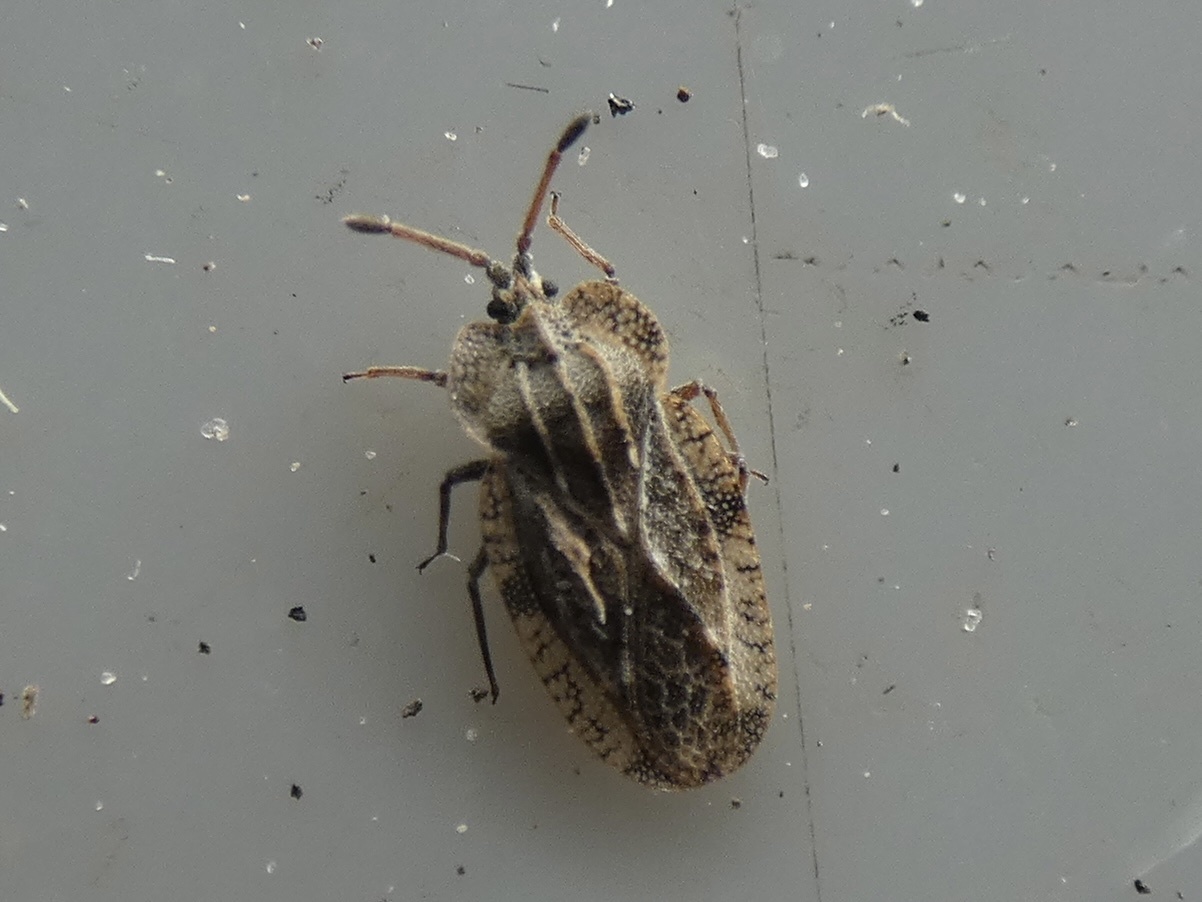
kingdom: Animalia
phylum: Arthropoda
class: Insecta
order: Hemiptera
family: Tingidae
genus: Tingis
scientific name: Tingis ampliata
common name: Creeping thistle lacebug
